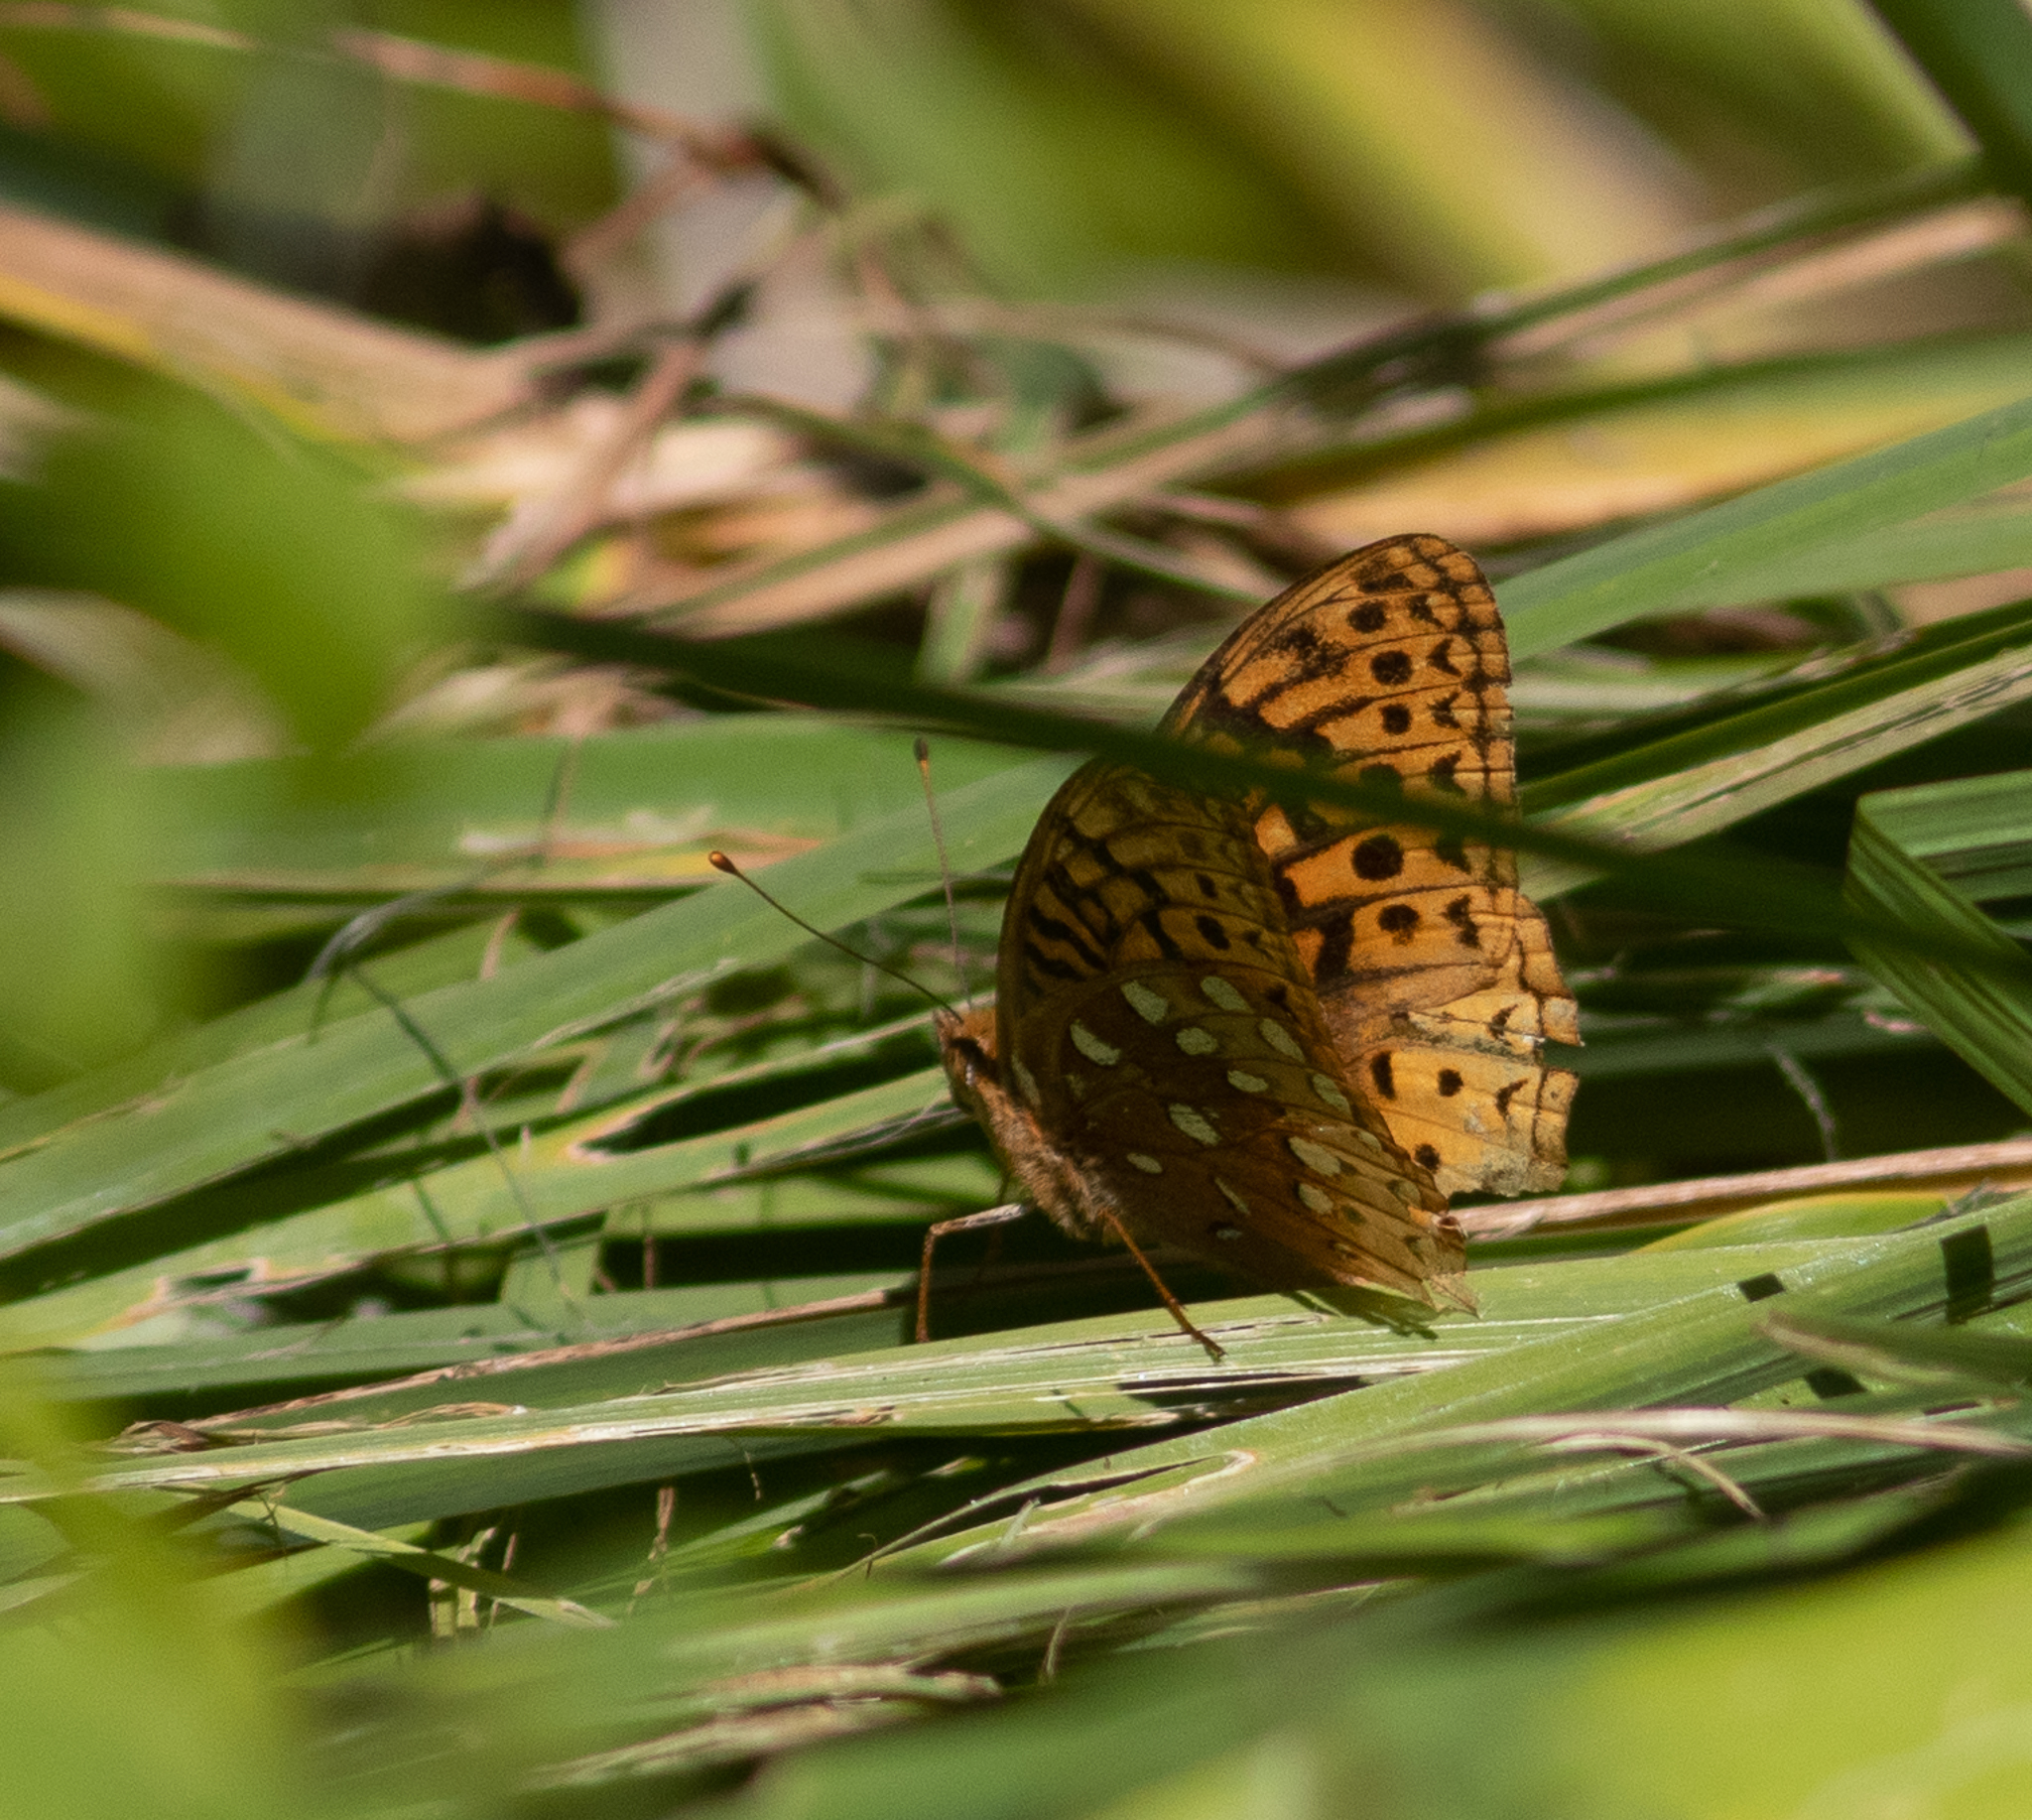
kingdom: Animalia
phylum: Arthropoda
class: Insecta
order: Lepidoptera
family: Nymphalidae
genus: Speyeria
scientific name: Speyeria cybele
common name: Great spangled fritillary
